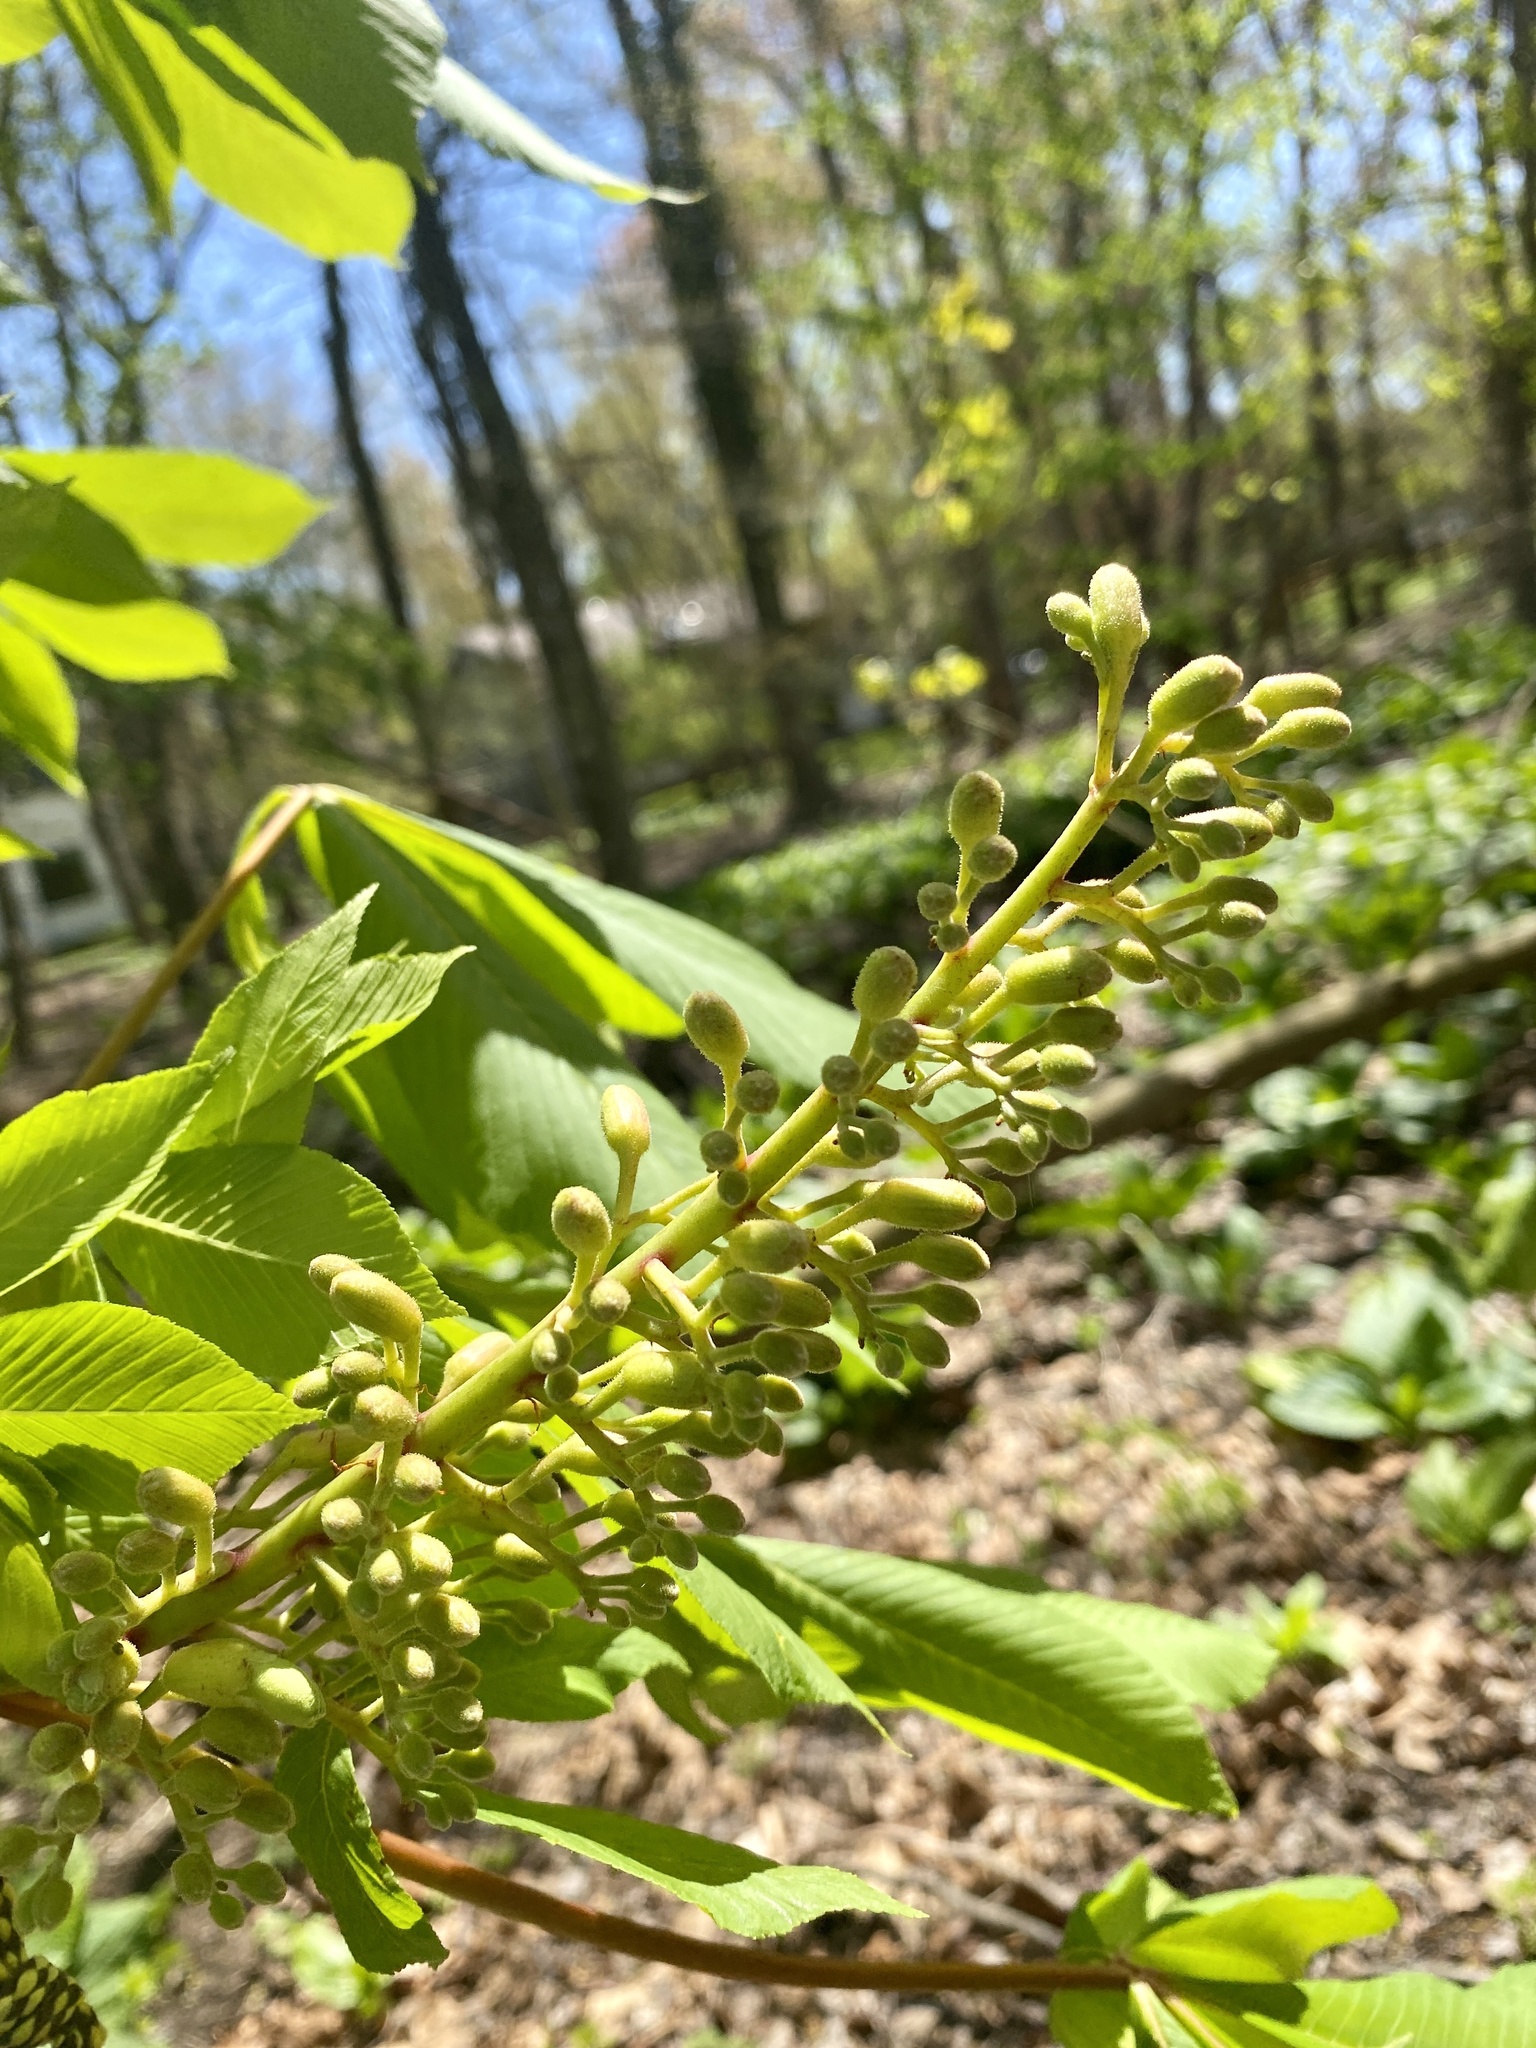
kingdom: Plantae
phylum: Tracheophyta
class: Magnoliopsida
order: Sapindales
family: Sapindaceae
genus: Aesculus
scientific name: Aesculus flava
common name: Yellow buckeye
